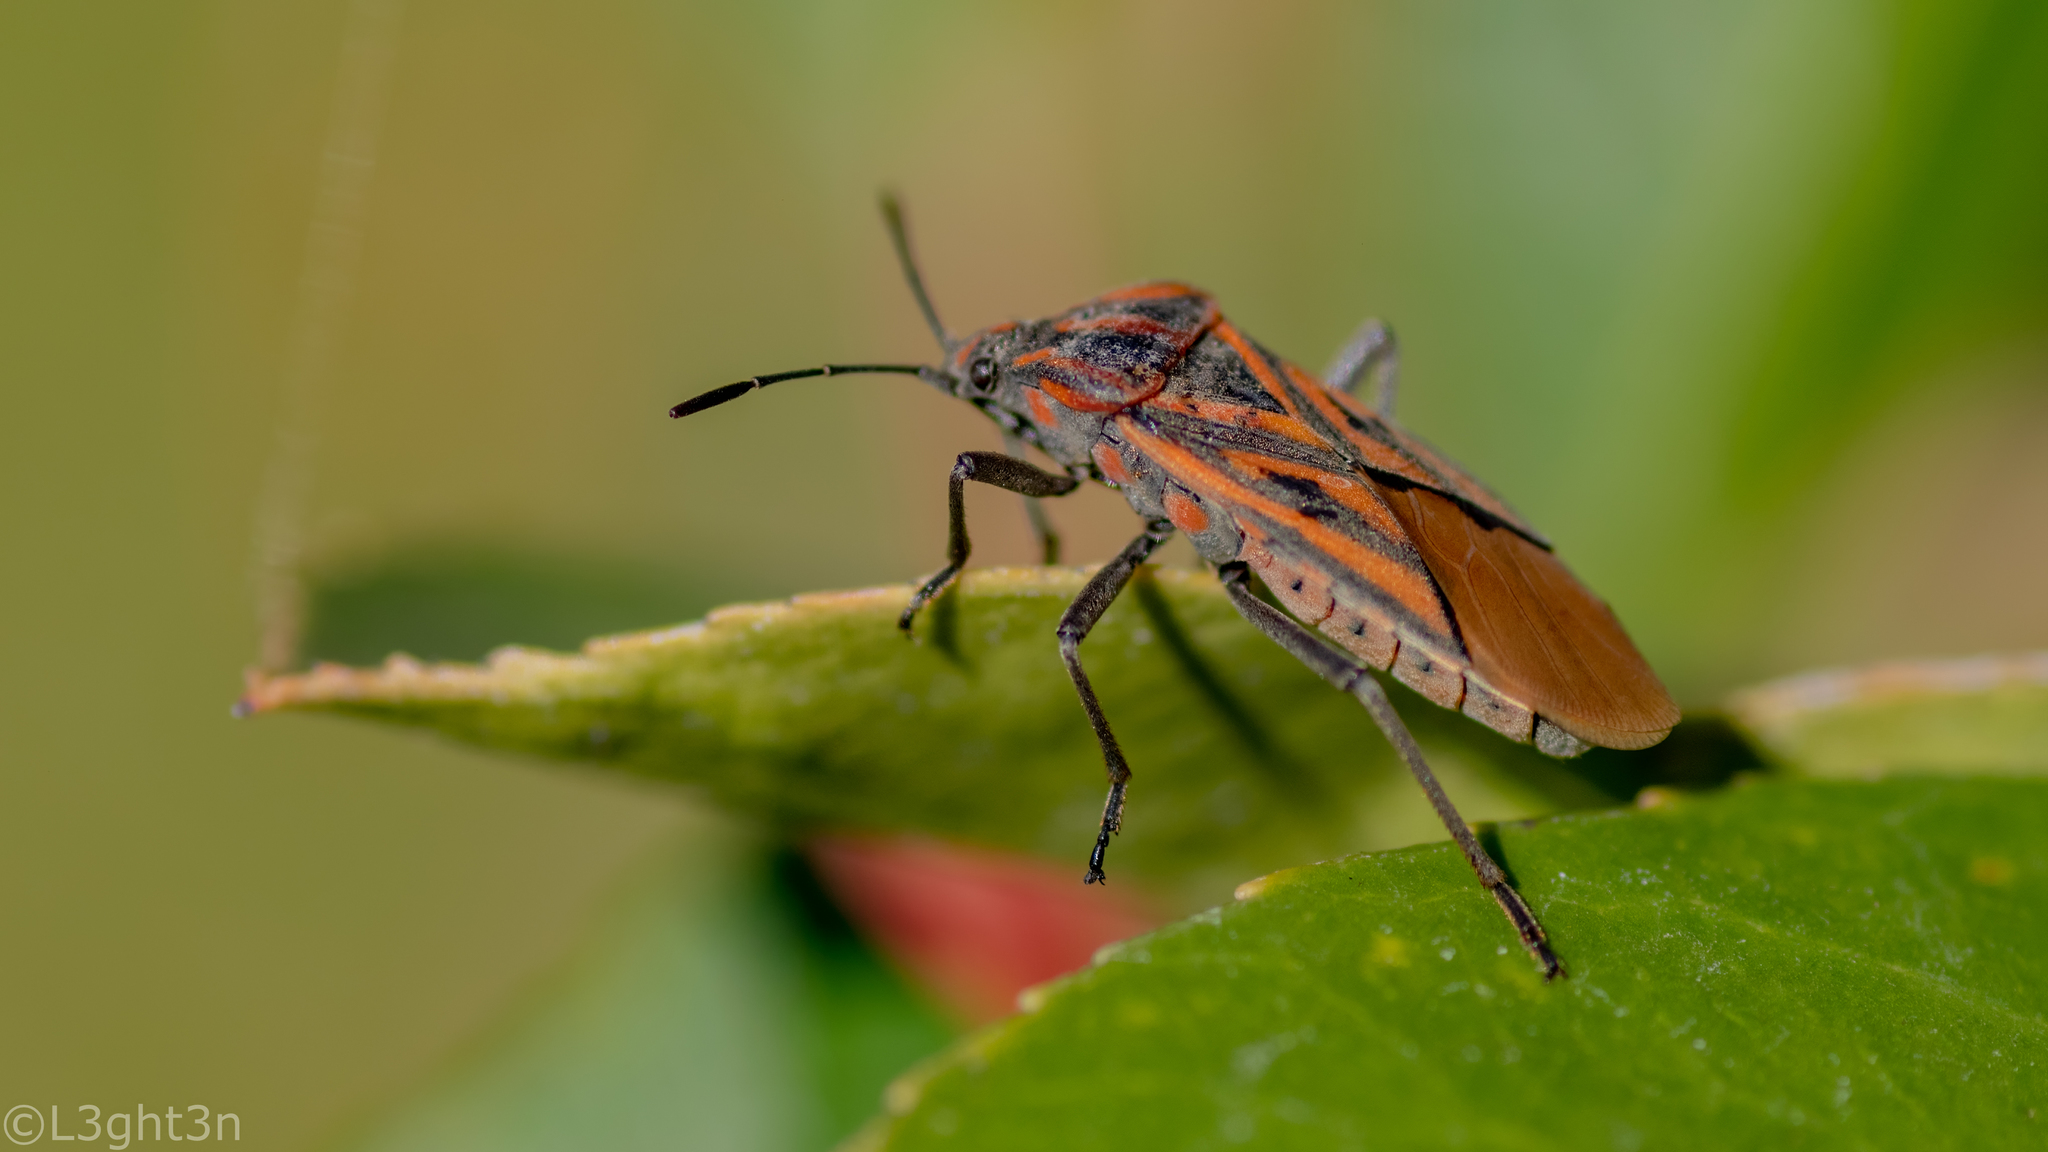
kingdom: Animalia
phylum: Arthropoda
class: Insecta
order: Hemiptera
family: Lygaeidae
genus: Spilostethus
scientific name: Spilostethus rivularis
